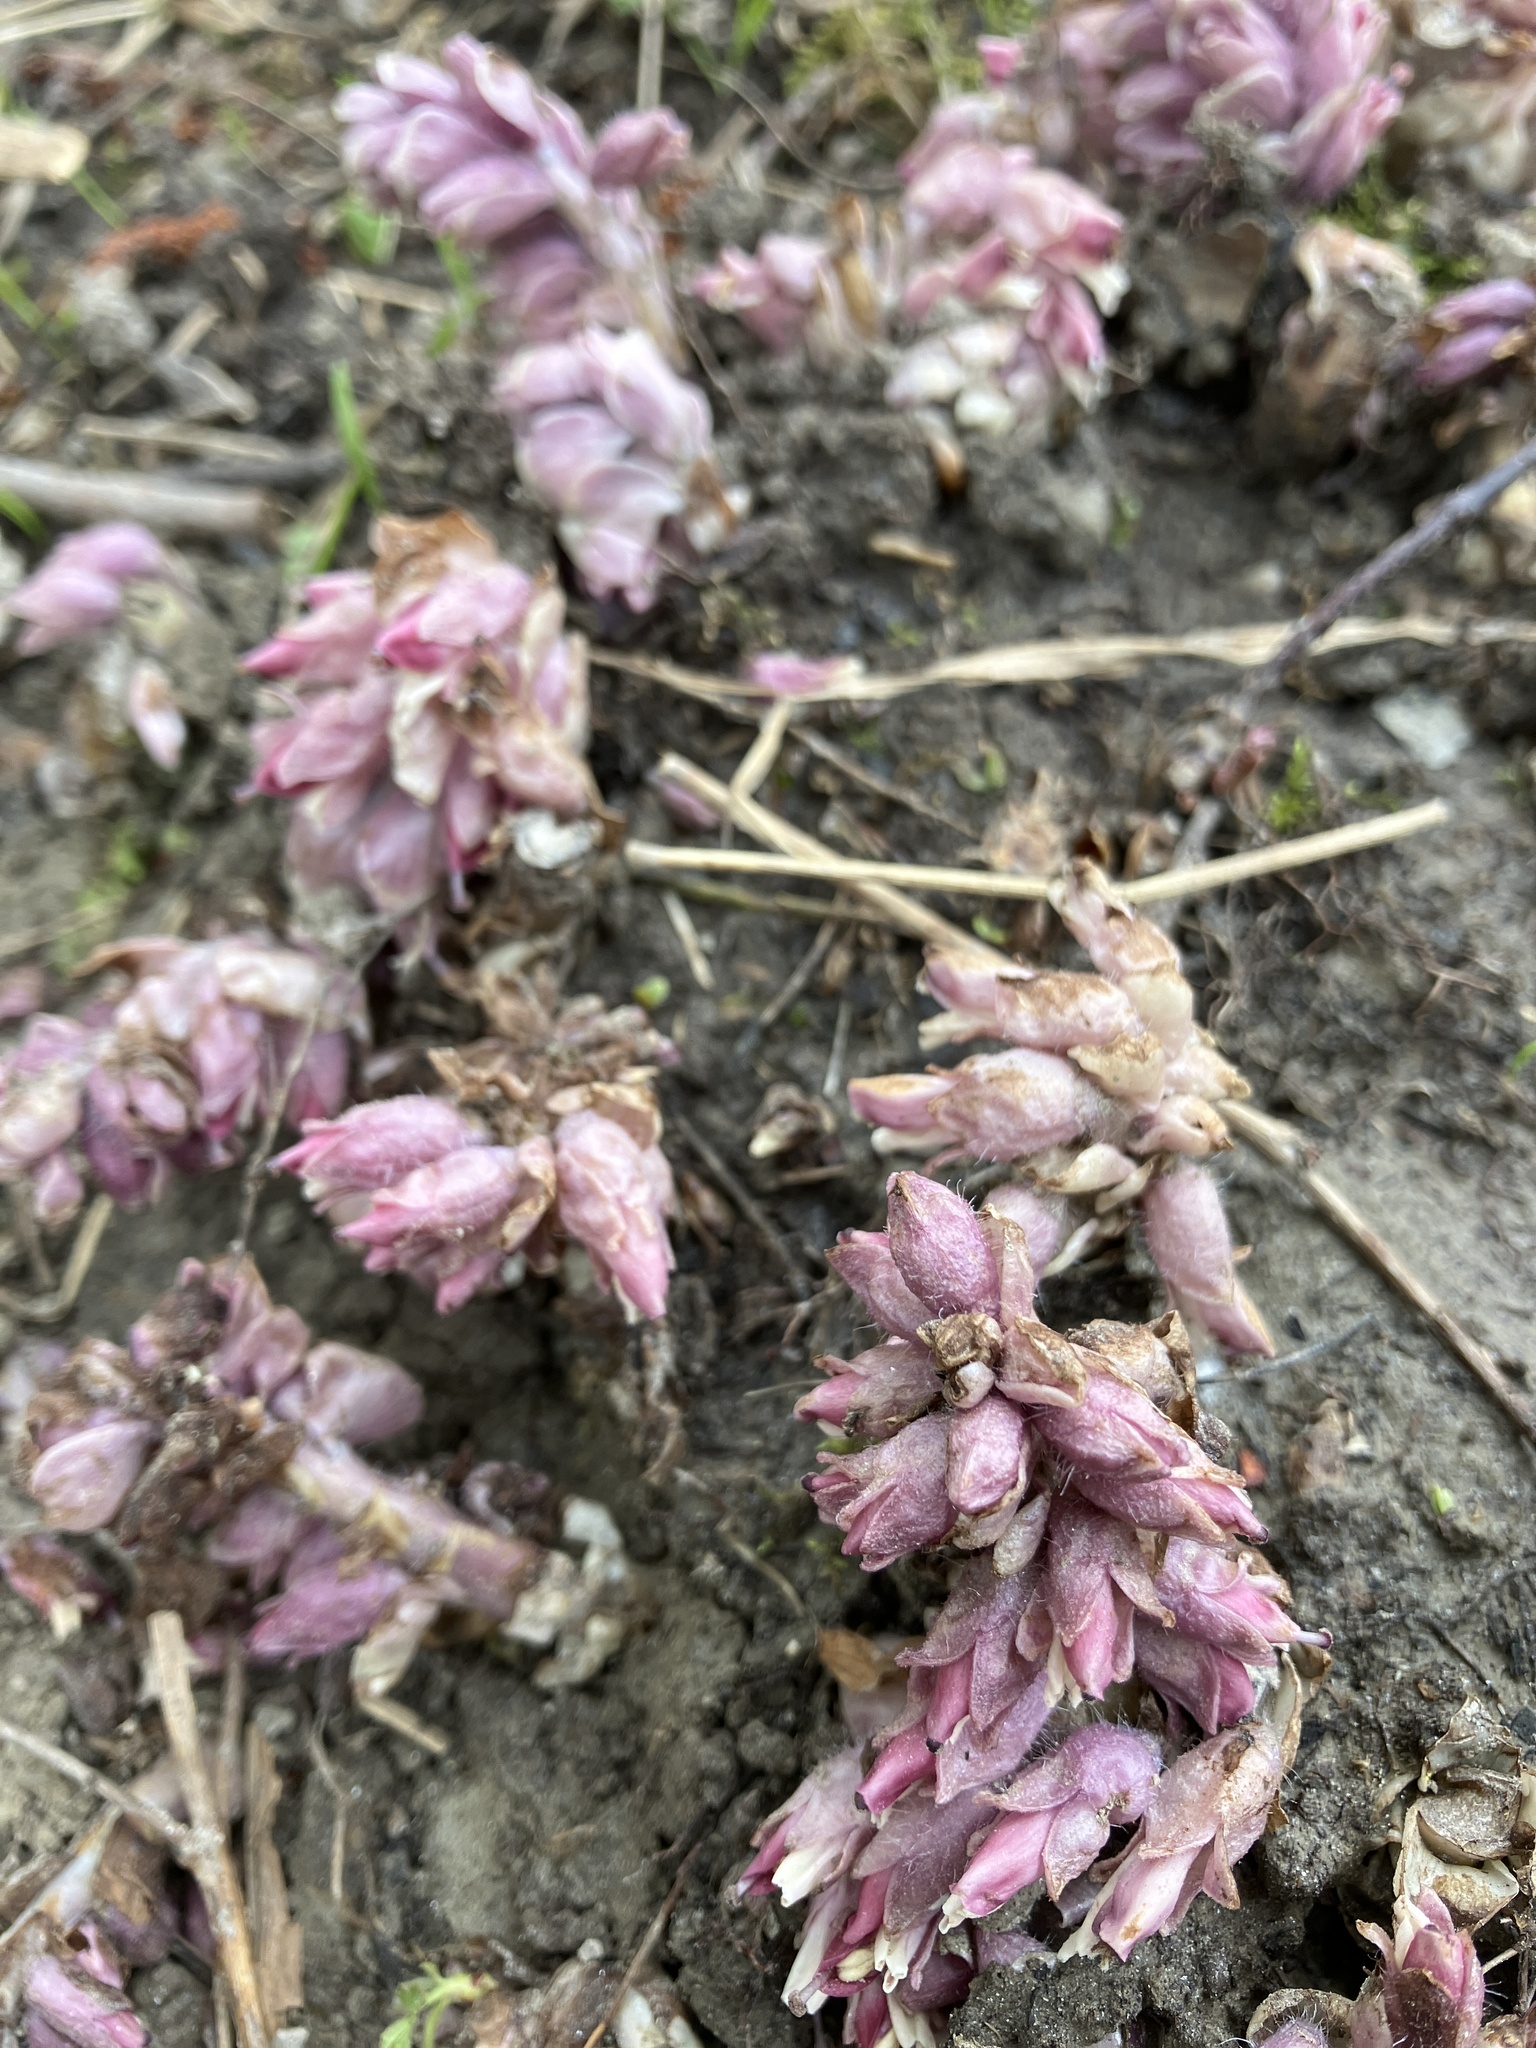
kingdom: Plantae
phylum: Tracheophyta
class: Magnoliopsida
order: Lamiales
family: Orobanchaceae
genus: Lathraea
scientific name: Lathraea squamaria
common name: Toothwort
